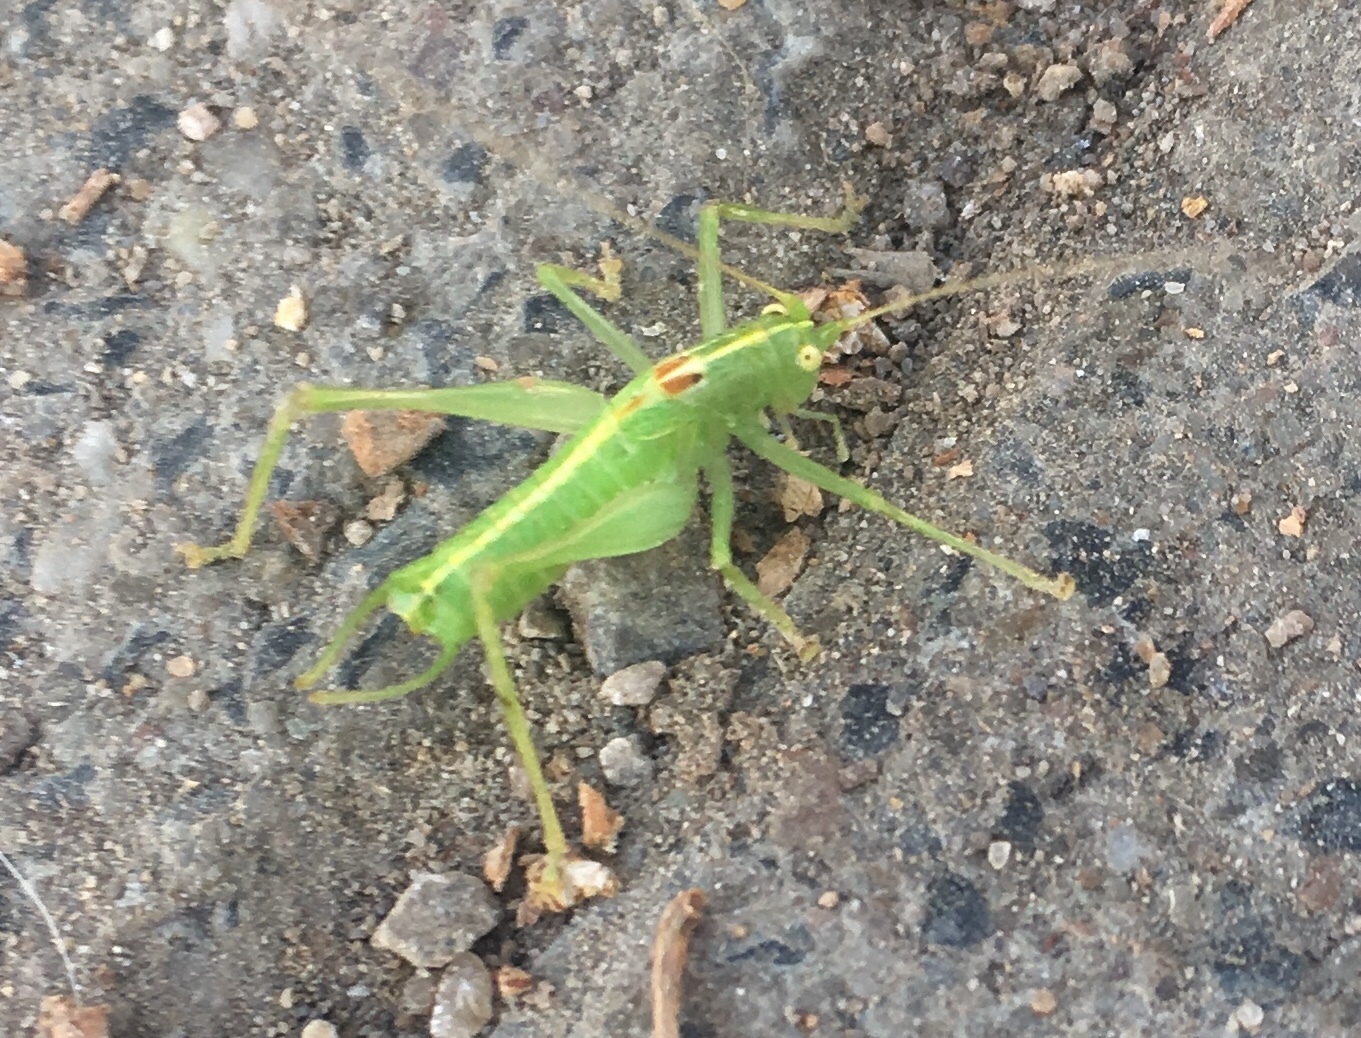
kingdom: Animalia
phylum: Arthropoda
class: Insecta
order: Orthoptera
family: Tettigoniidae
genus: Meconema
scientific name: Meconema meridionale
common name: Southern oak bush-cricket
